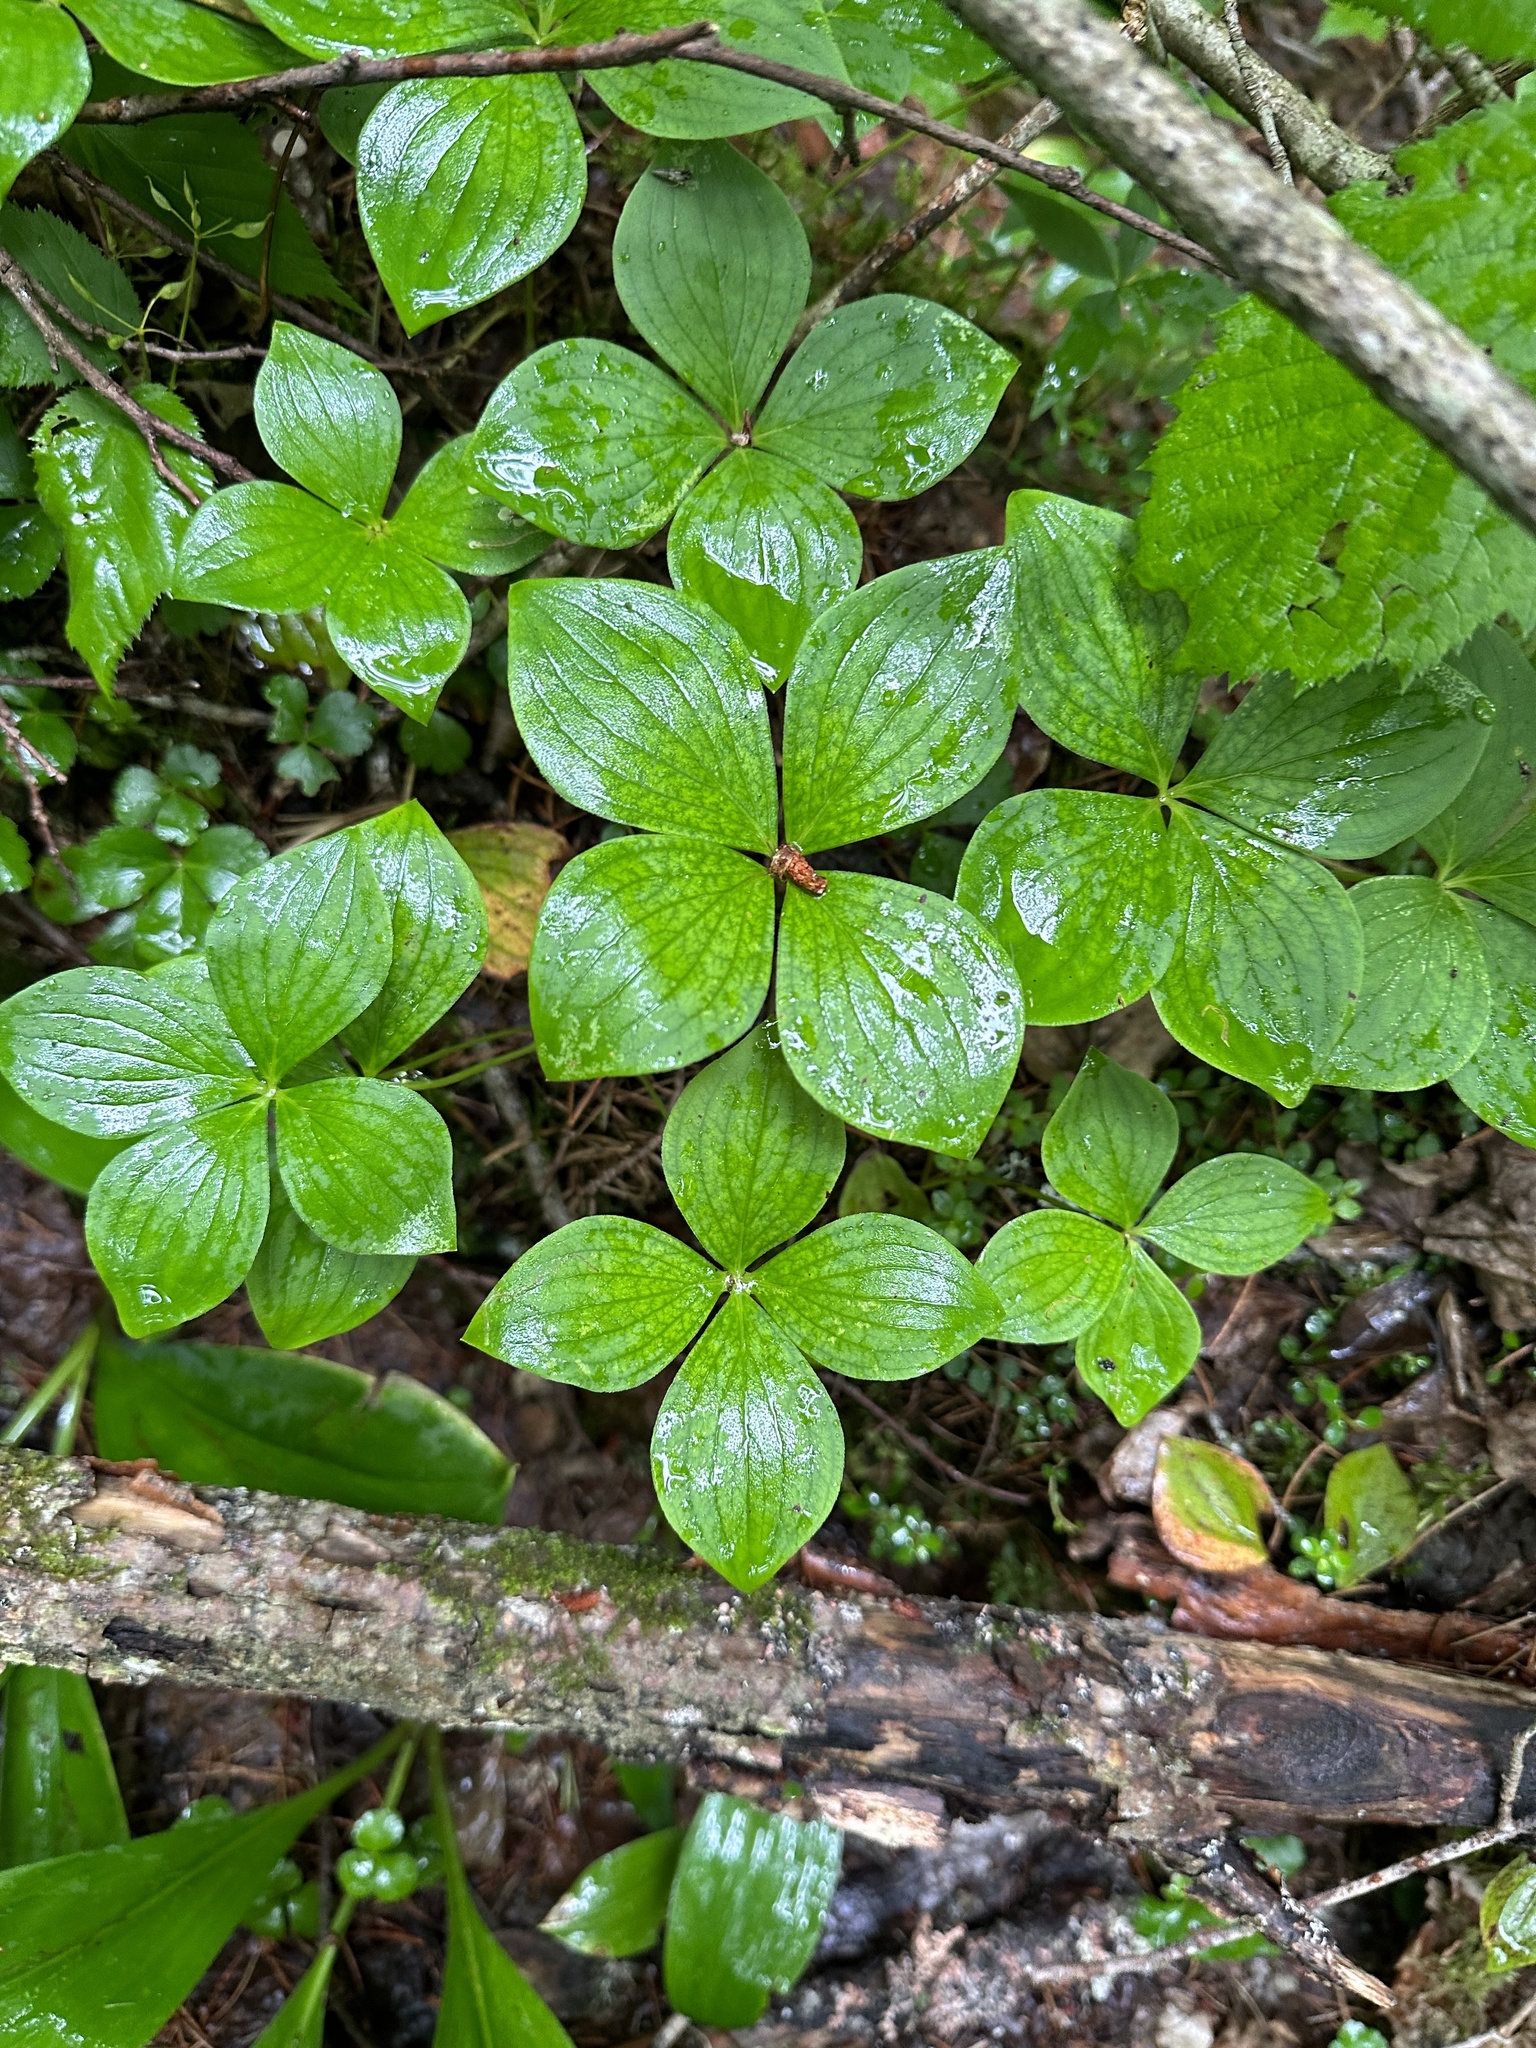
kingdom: Plantae
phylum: Tracheophyta
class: Magnoliopsida
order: Cornales
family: Cornaceae
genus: Cornus
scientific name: Cornus canadensis
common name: Creeping dogwood
